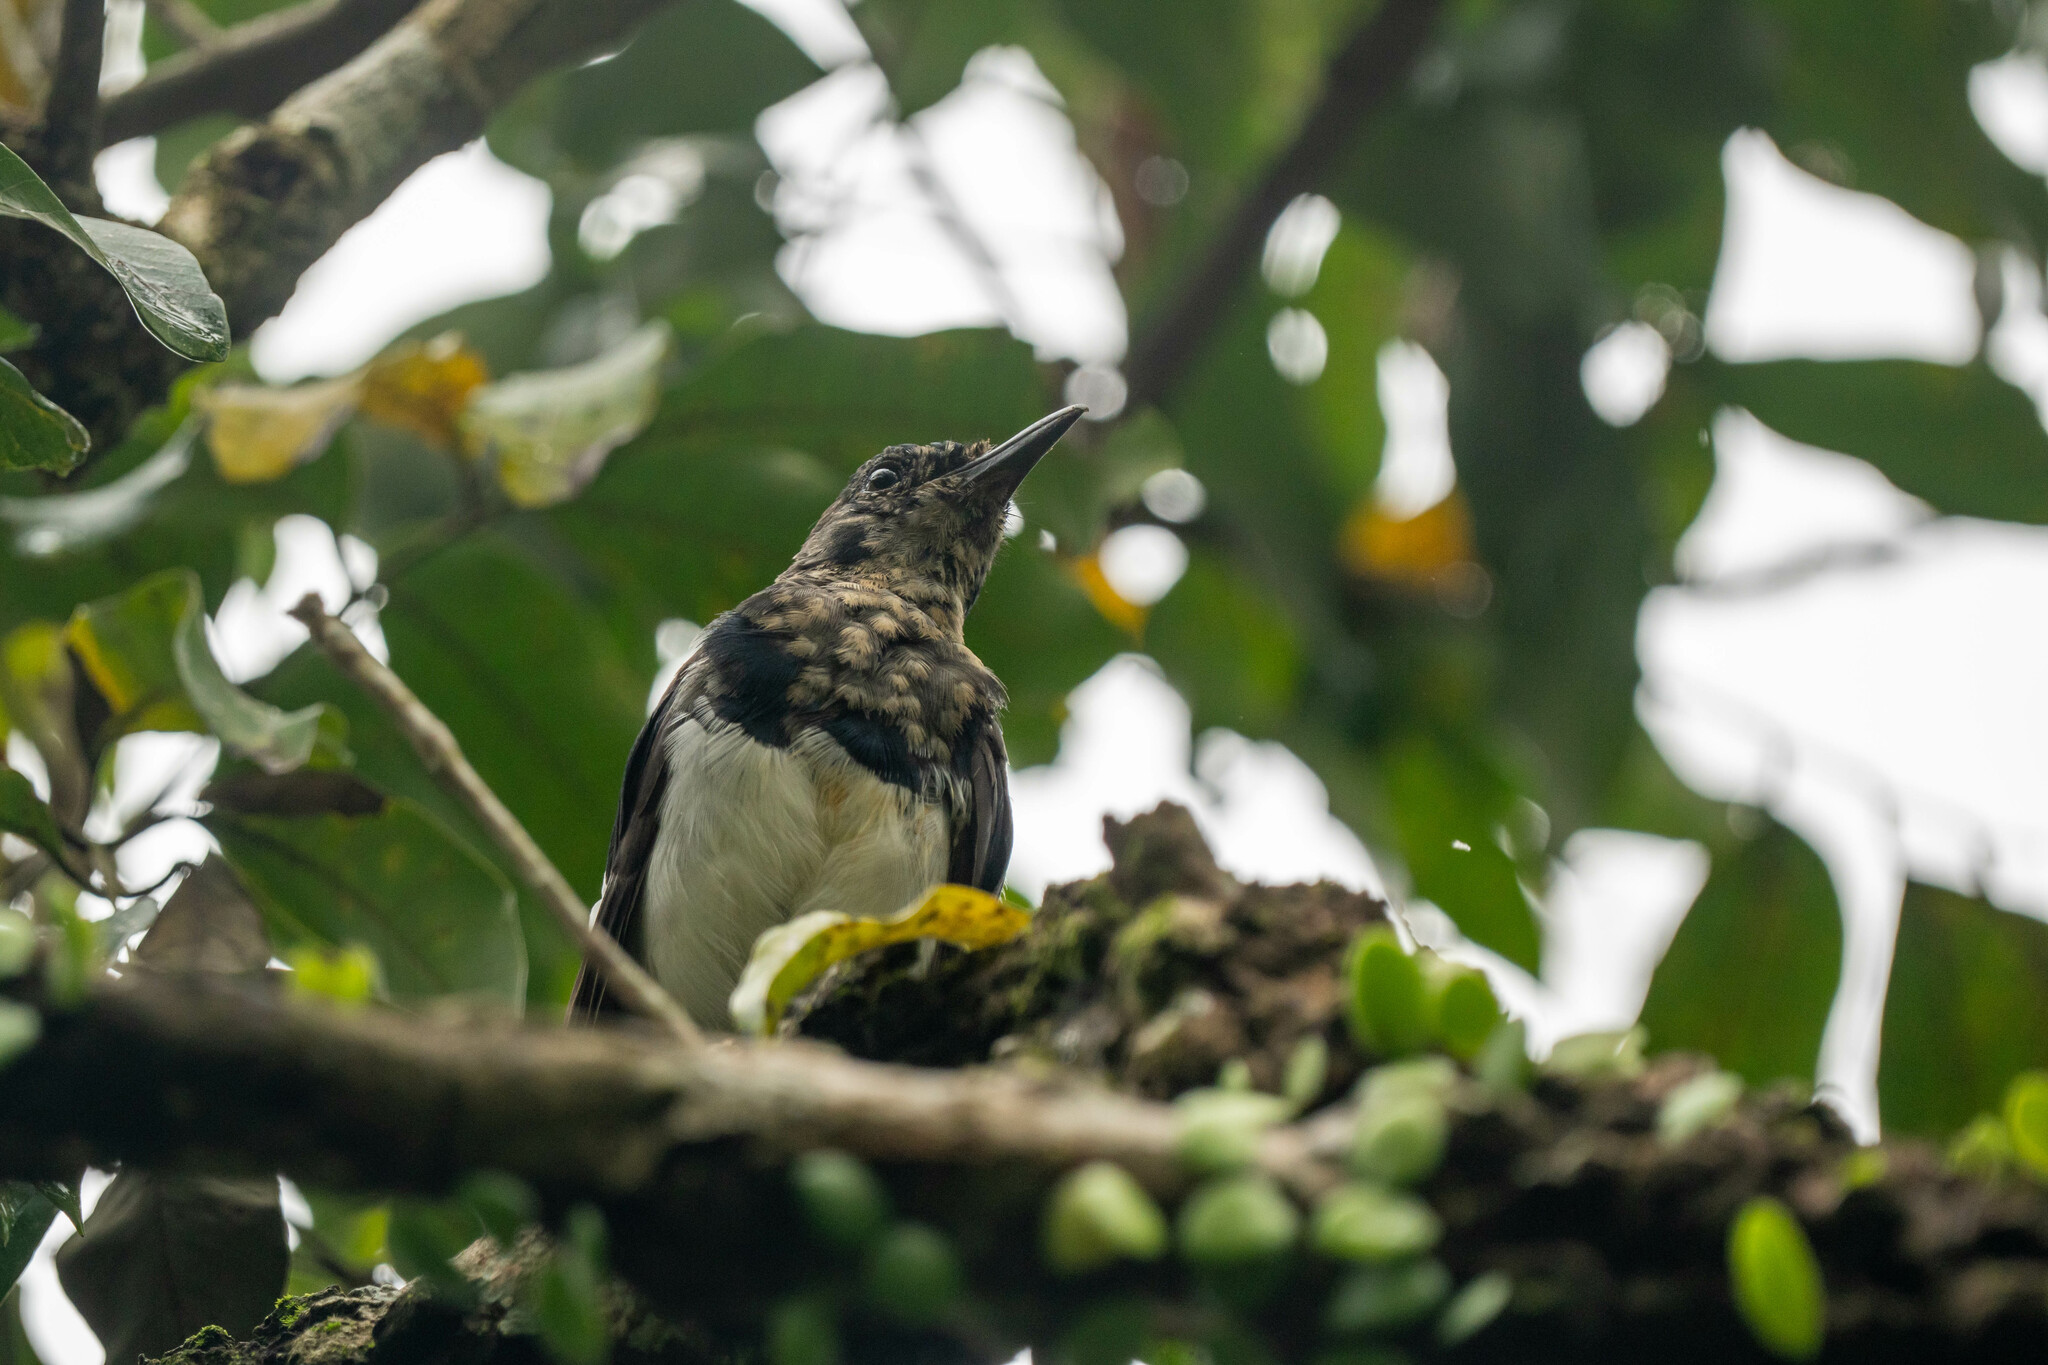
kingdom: Animalia
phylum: Chordata
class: Aves
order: Passeriformes
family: Muscicapidae
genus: Copsychus
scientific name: Copsychus saularis
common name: Oriental magpie-robin
